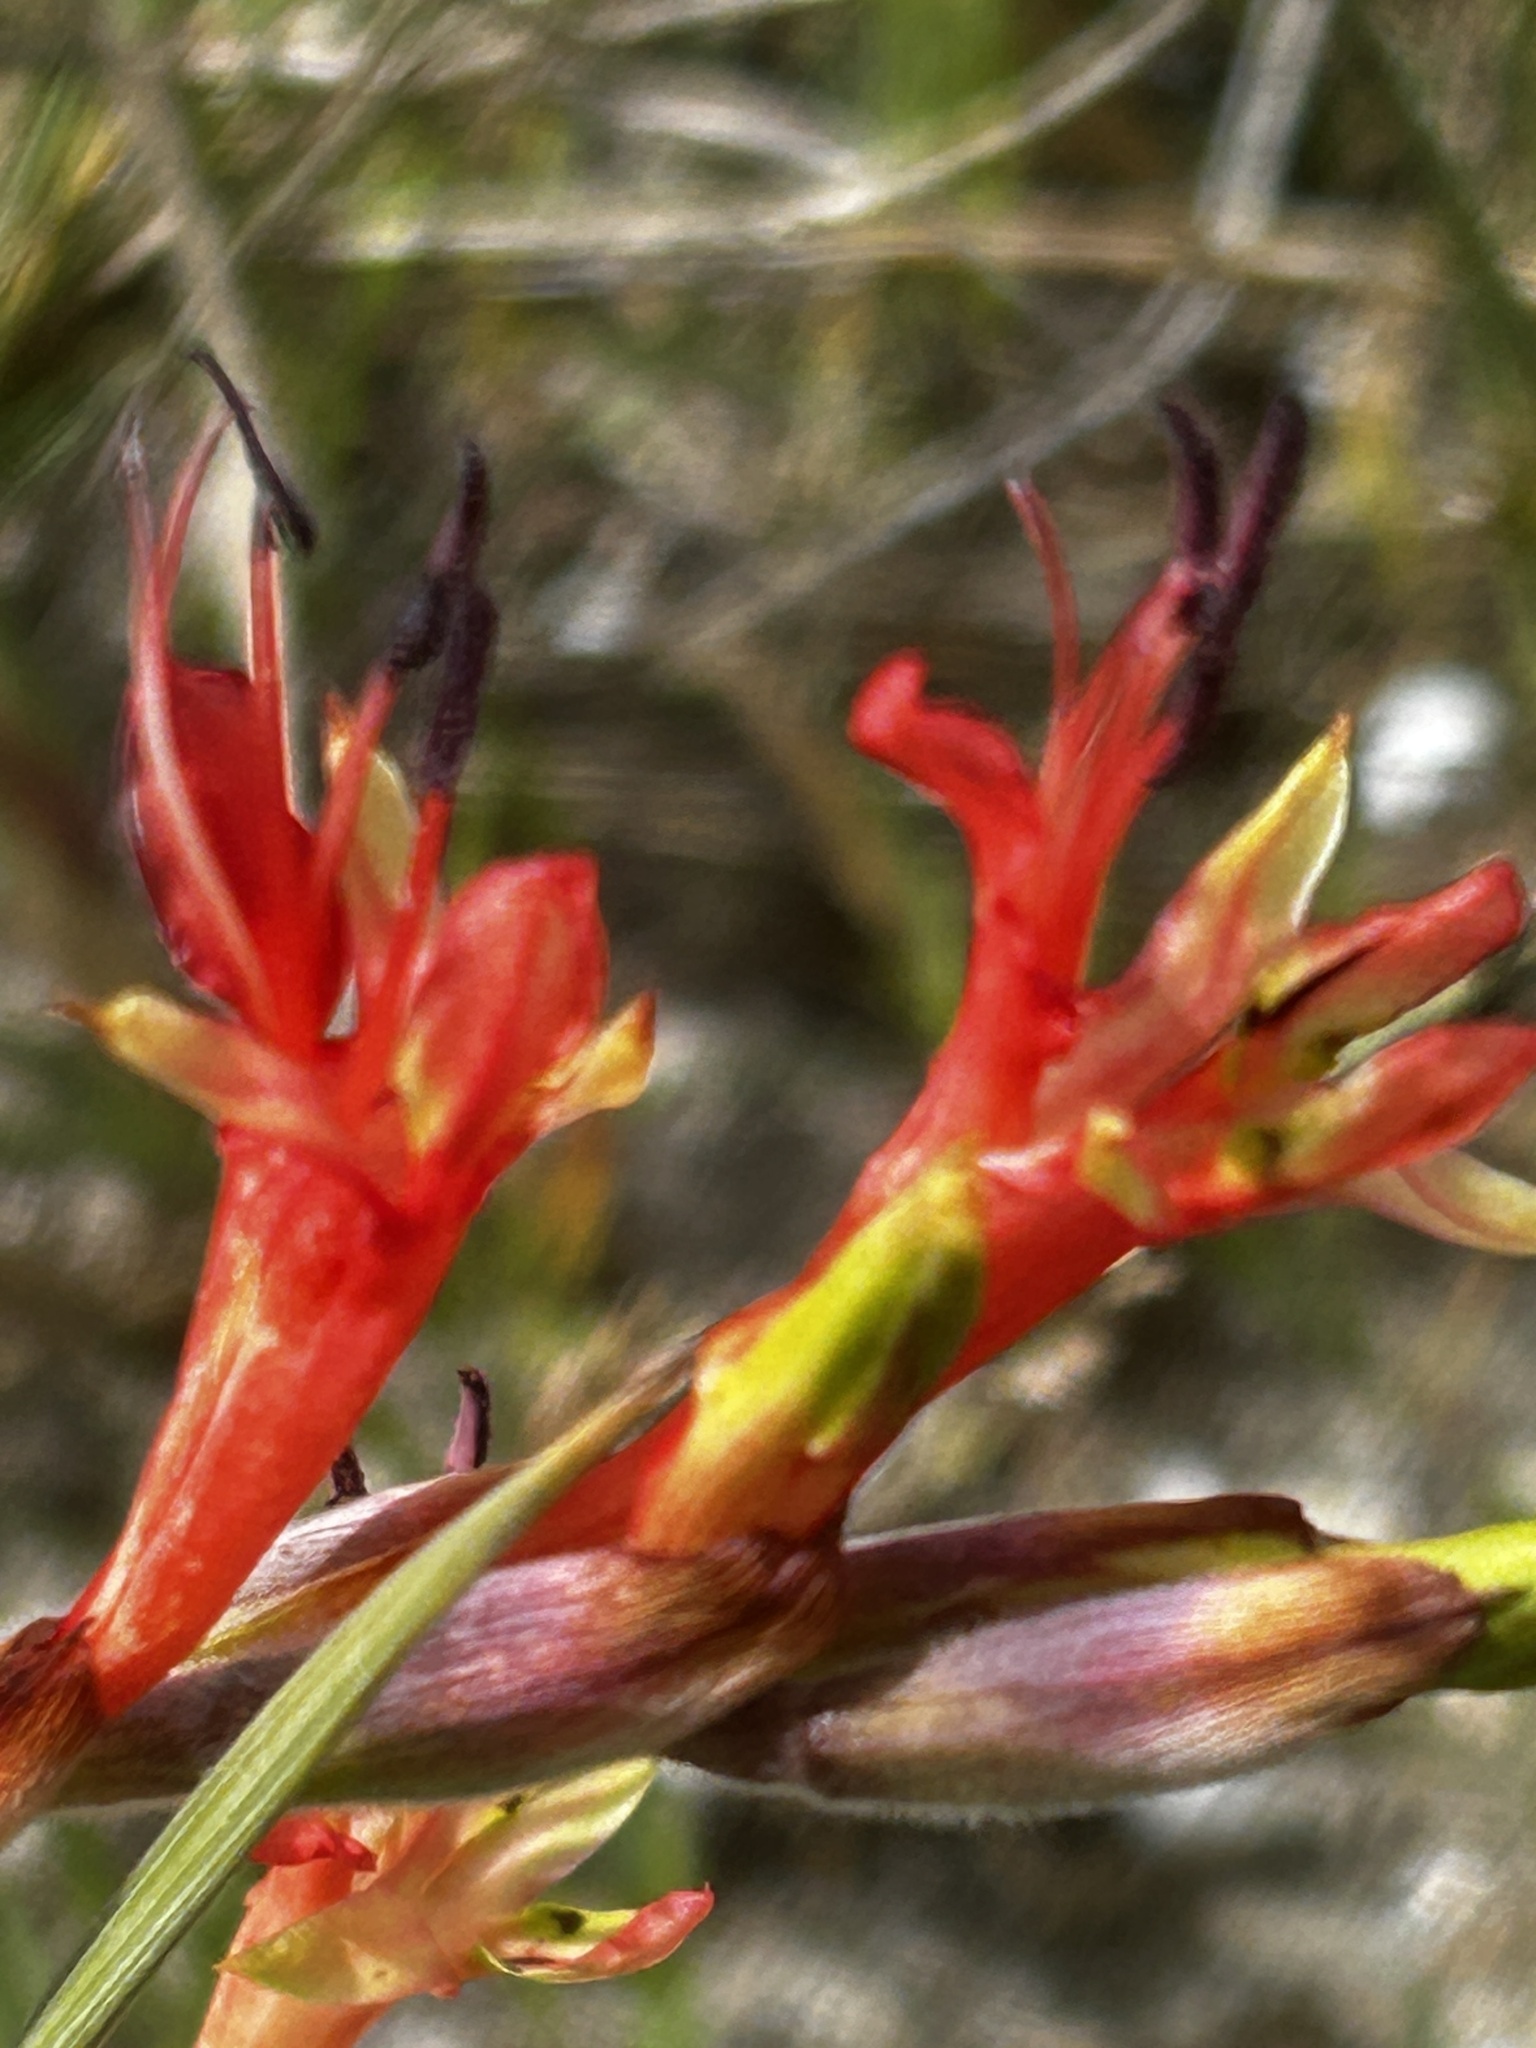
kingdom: Plantae
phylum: Tracheophyta
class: Liliopsida
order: Asparagales
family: Iridaceae
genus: Babiana
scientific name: Babiana hirsuta
